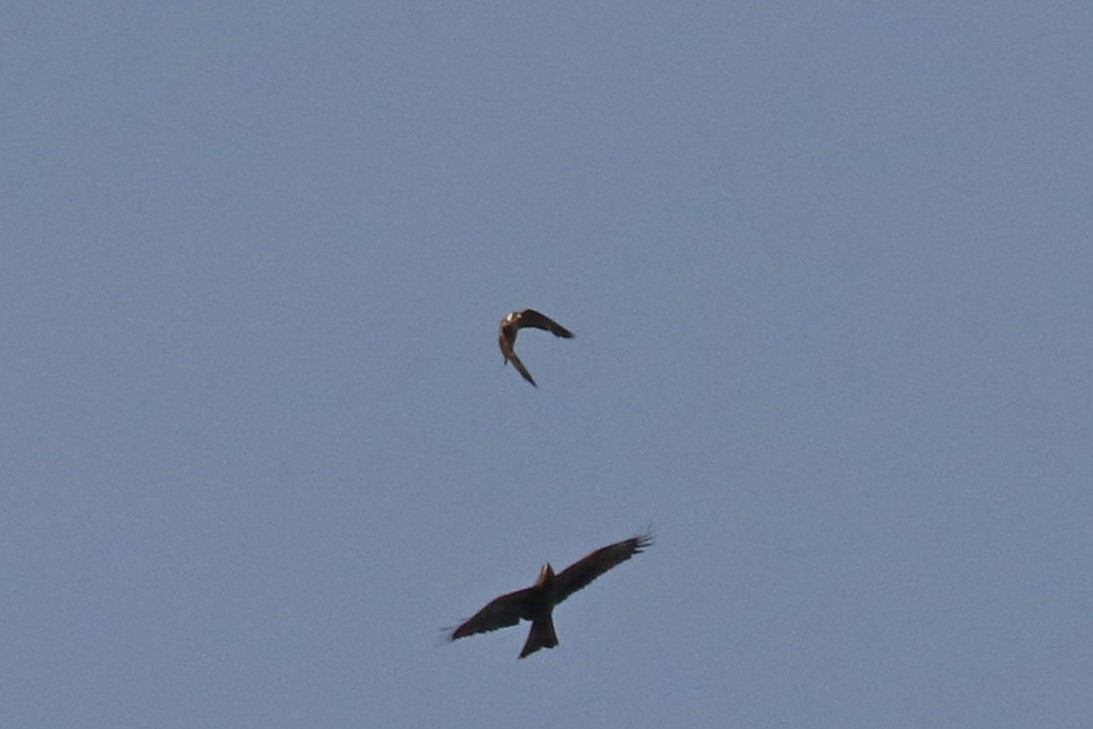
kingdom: Animalia
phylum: Chordata
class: Aves
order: Falconiformes
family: Falconidae
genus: Falco
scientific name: Falco peregrinus
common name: Peregrine falcon
